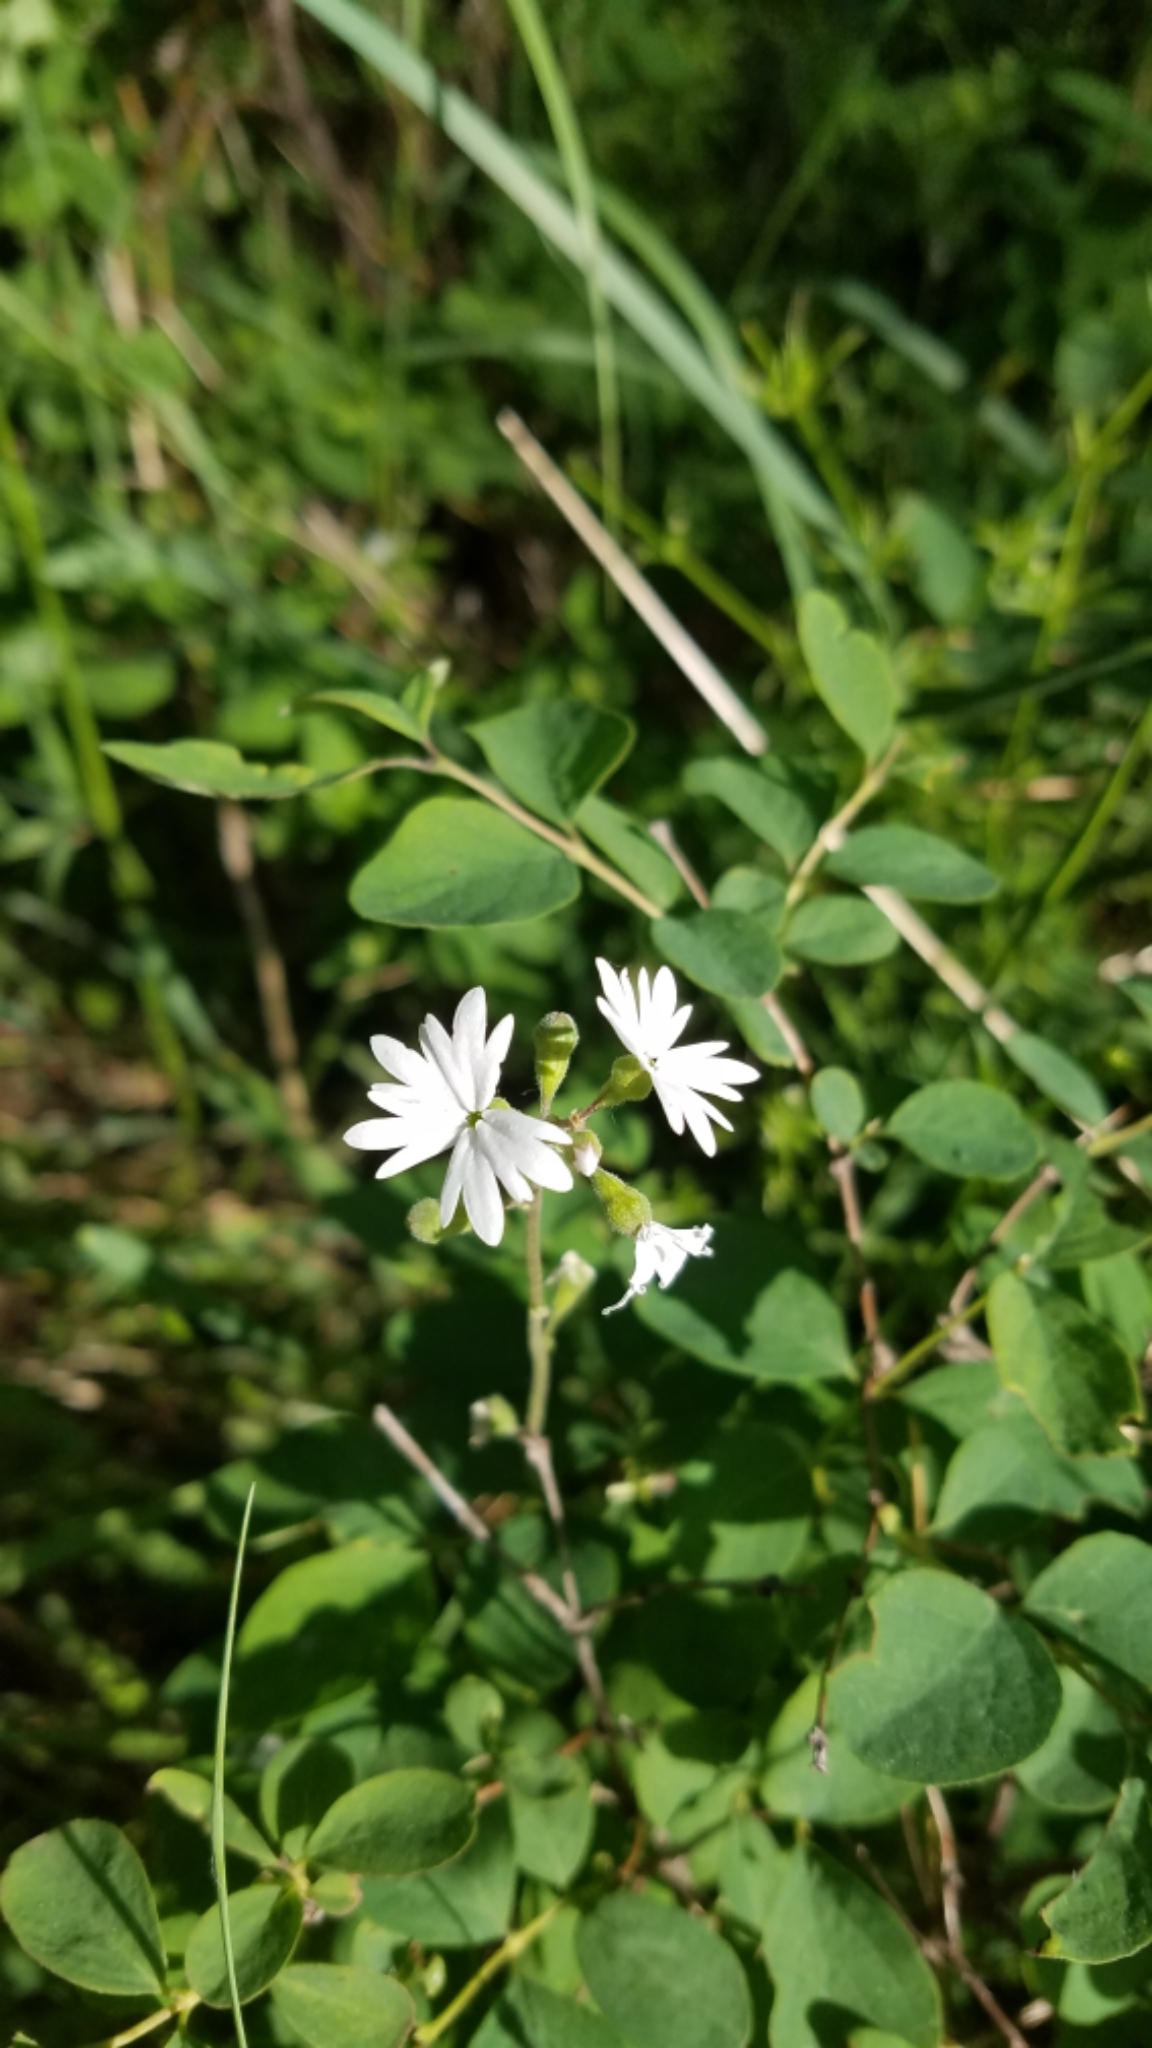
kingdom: Plantae
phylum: Tracheophyta
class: Magnoliopsida
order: Saxifragales
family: Saxifragaceae
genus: Lithophragma
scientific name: Lithophragma parviflorum
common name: Small-flowered fringe-cup
